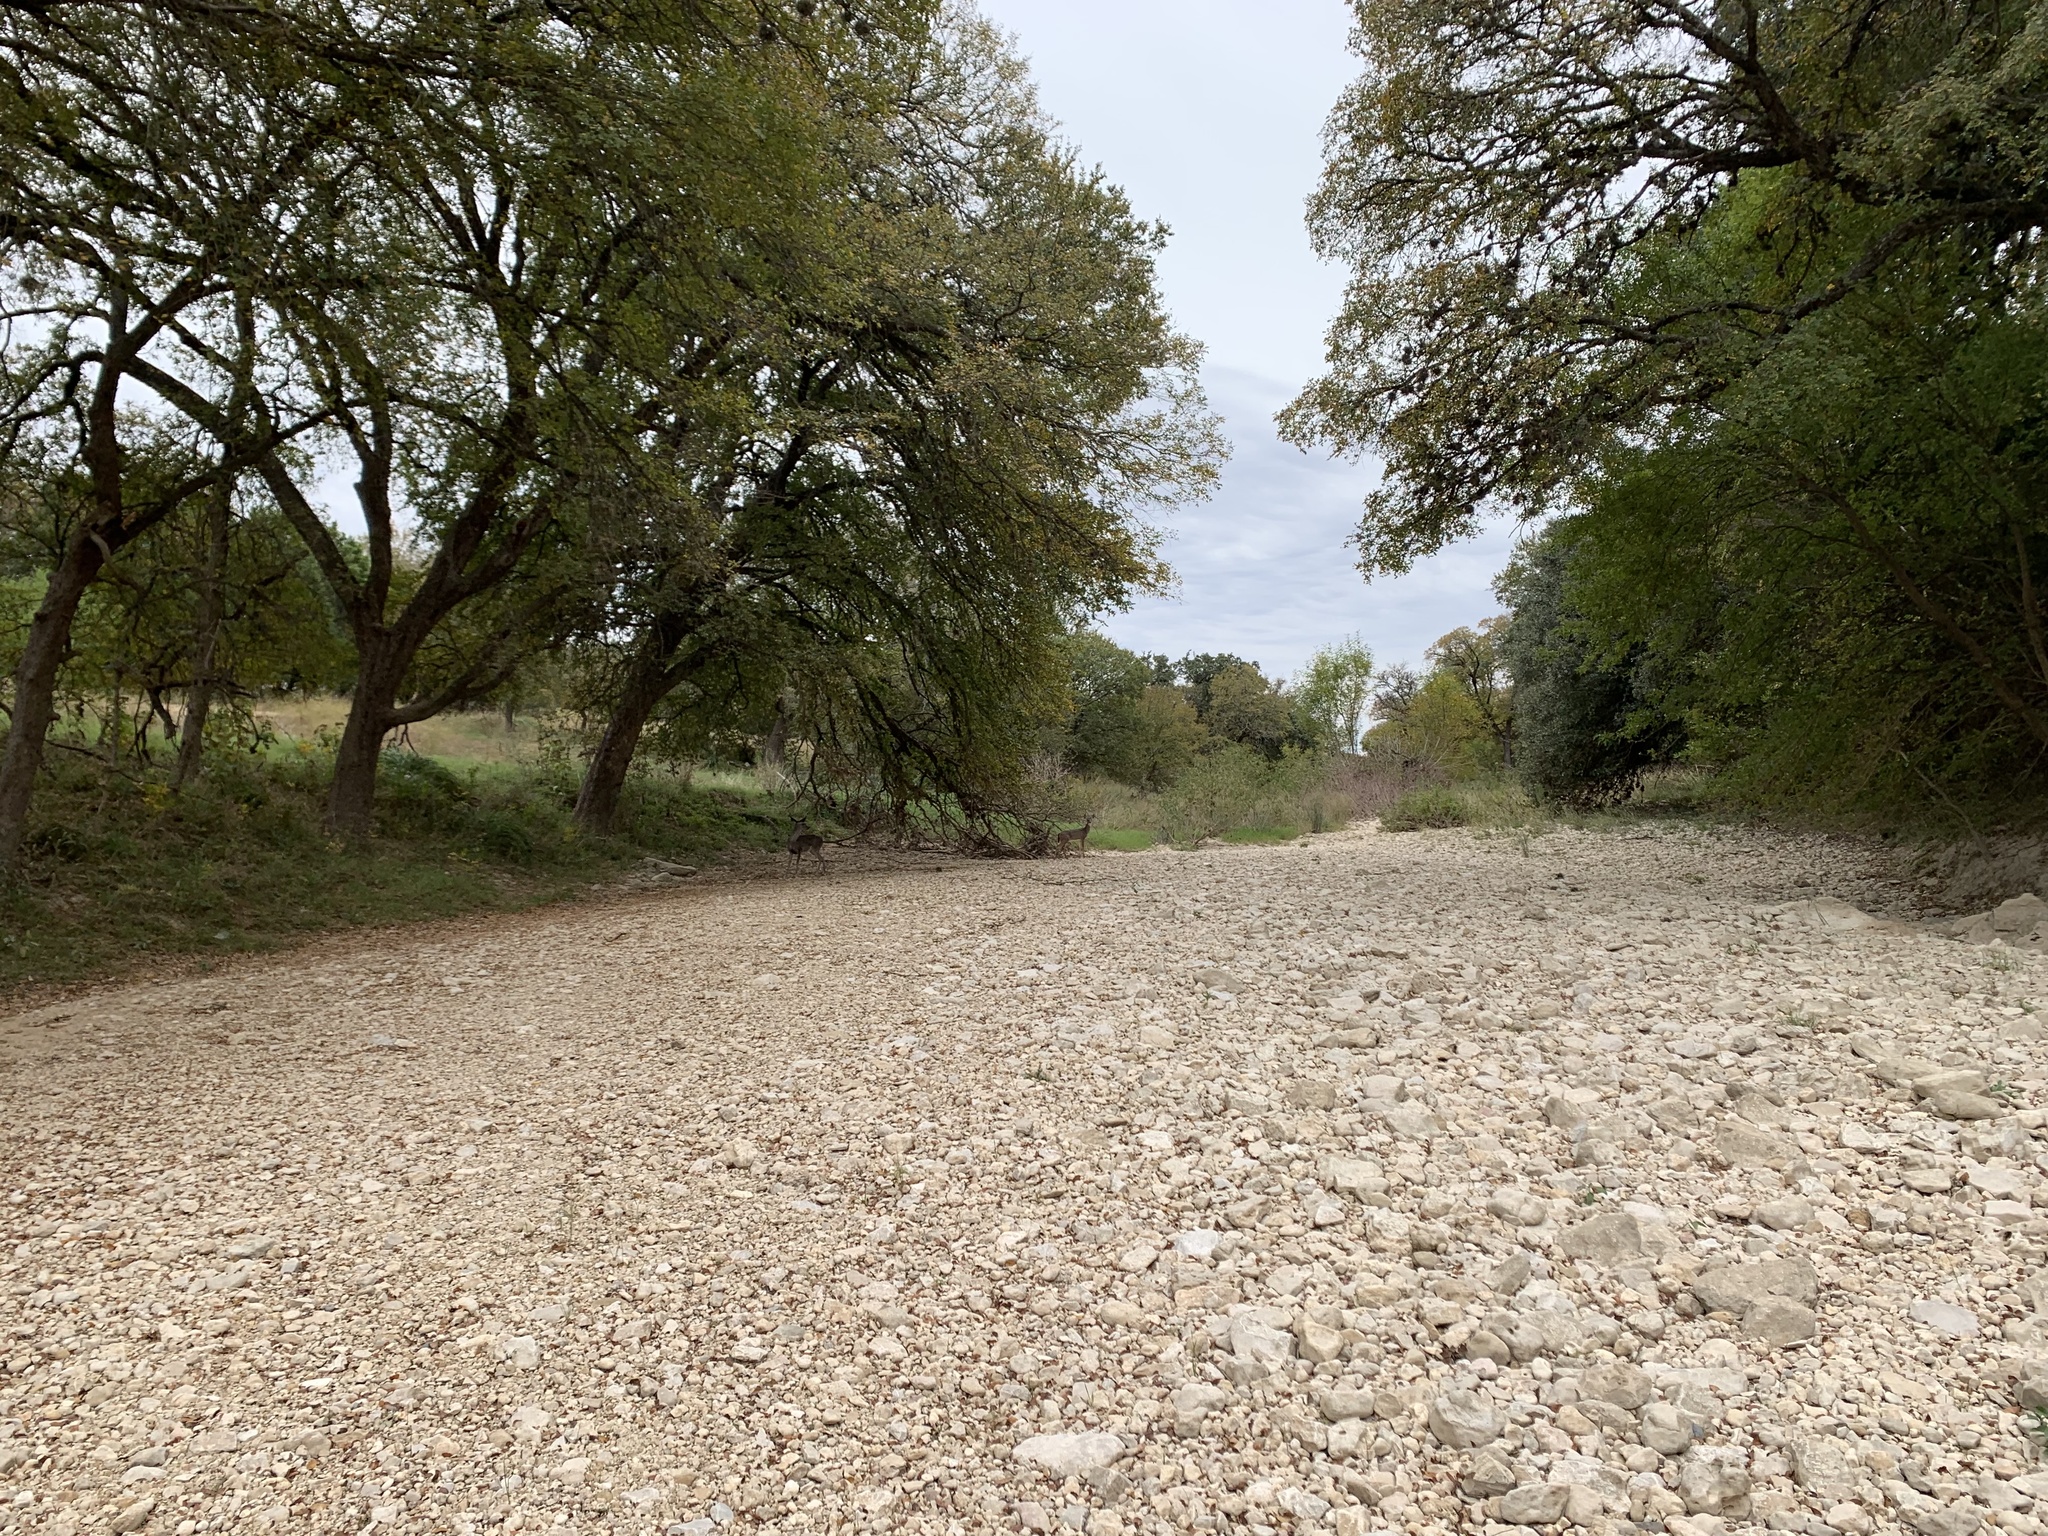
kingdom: Animalia
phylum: Chordata
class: Mammalia
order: Artiodactyla
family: Cervidae
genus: Odocoileus
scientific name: Odocoileus virginianus
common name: White-tailed deer
